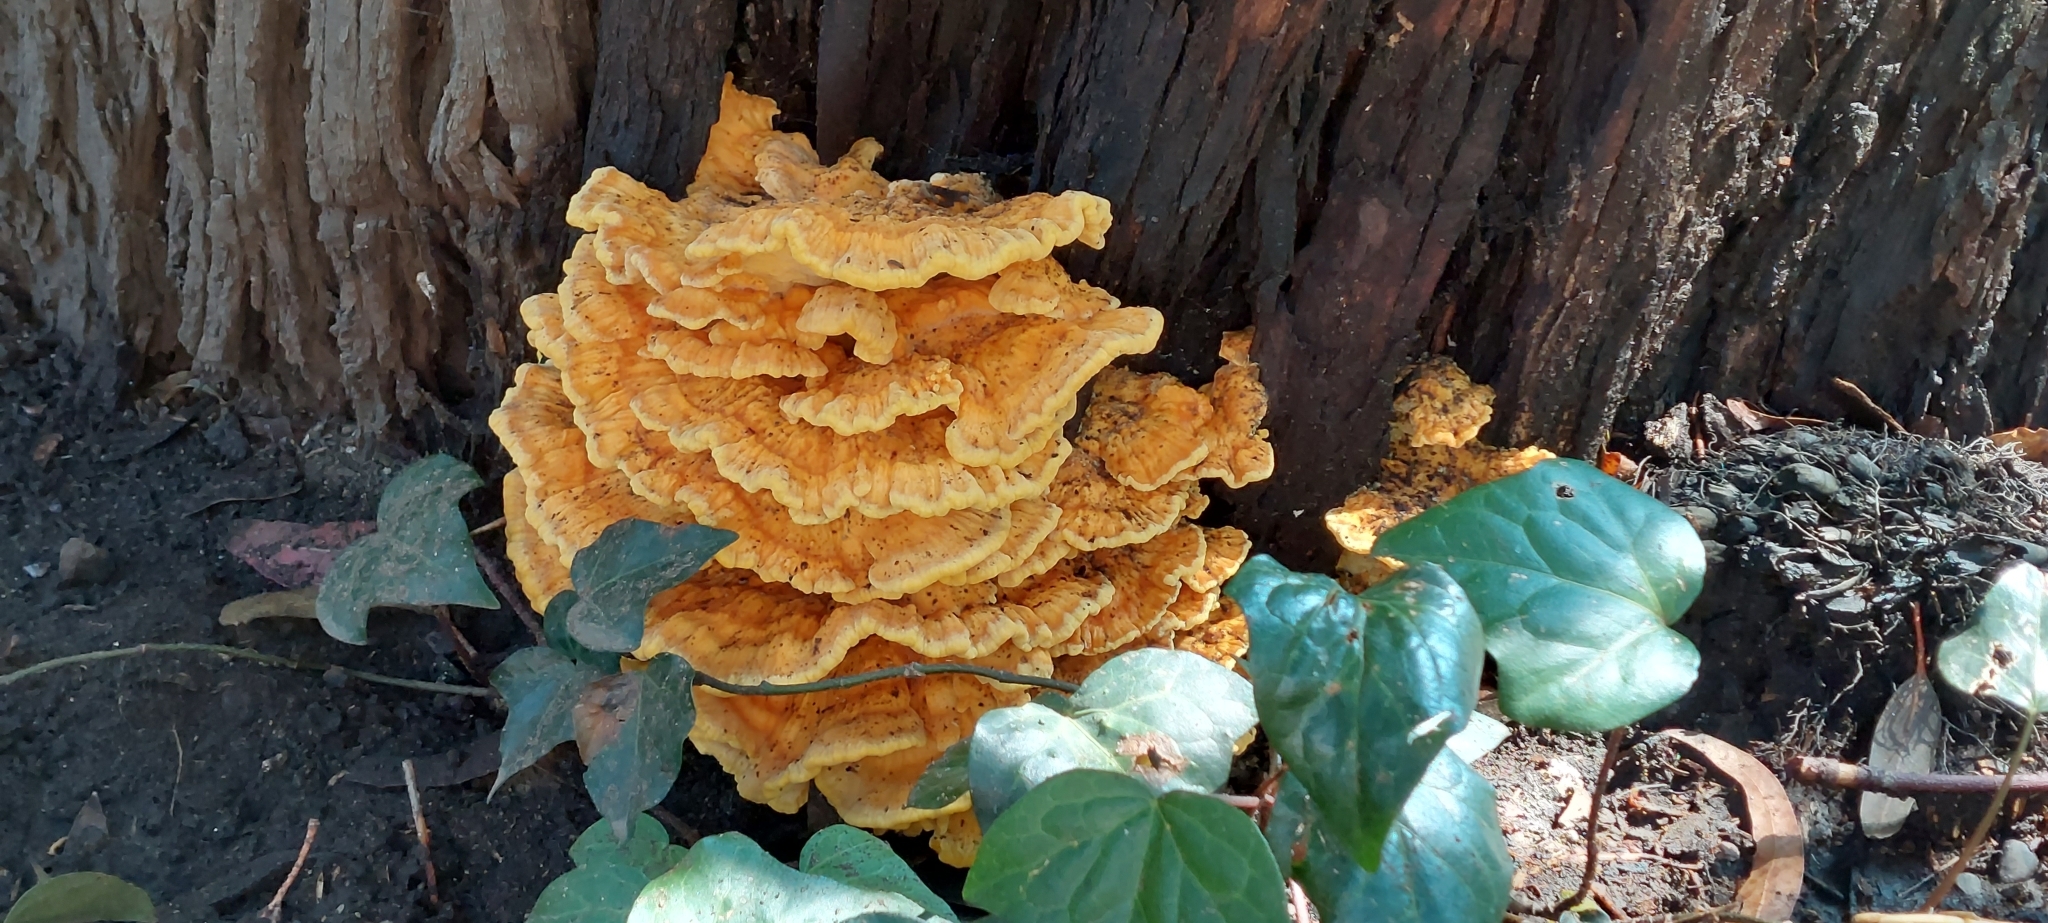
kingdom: Fungi
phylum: Basidiomycota
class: Agaricomycetes
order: Polyporales
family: Laetiporaceae
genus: Laetiporus
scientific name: Laetiporus sulphureus
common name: Chicken of the woods
